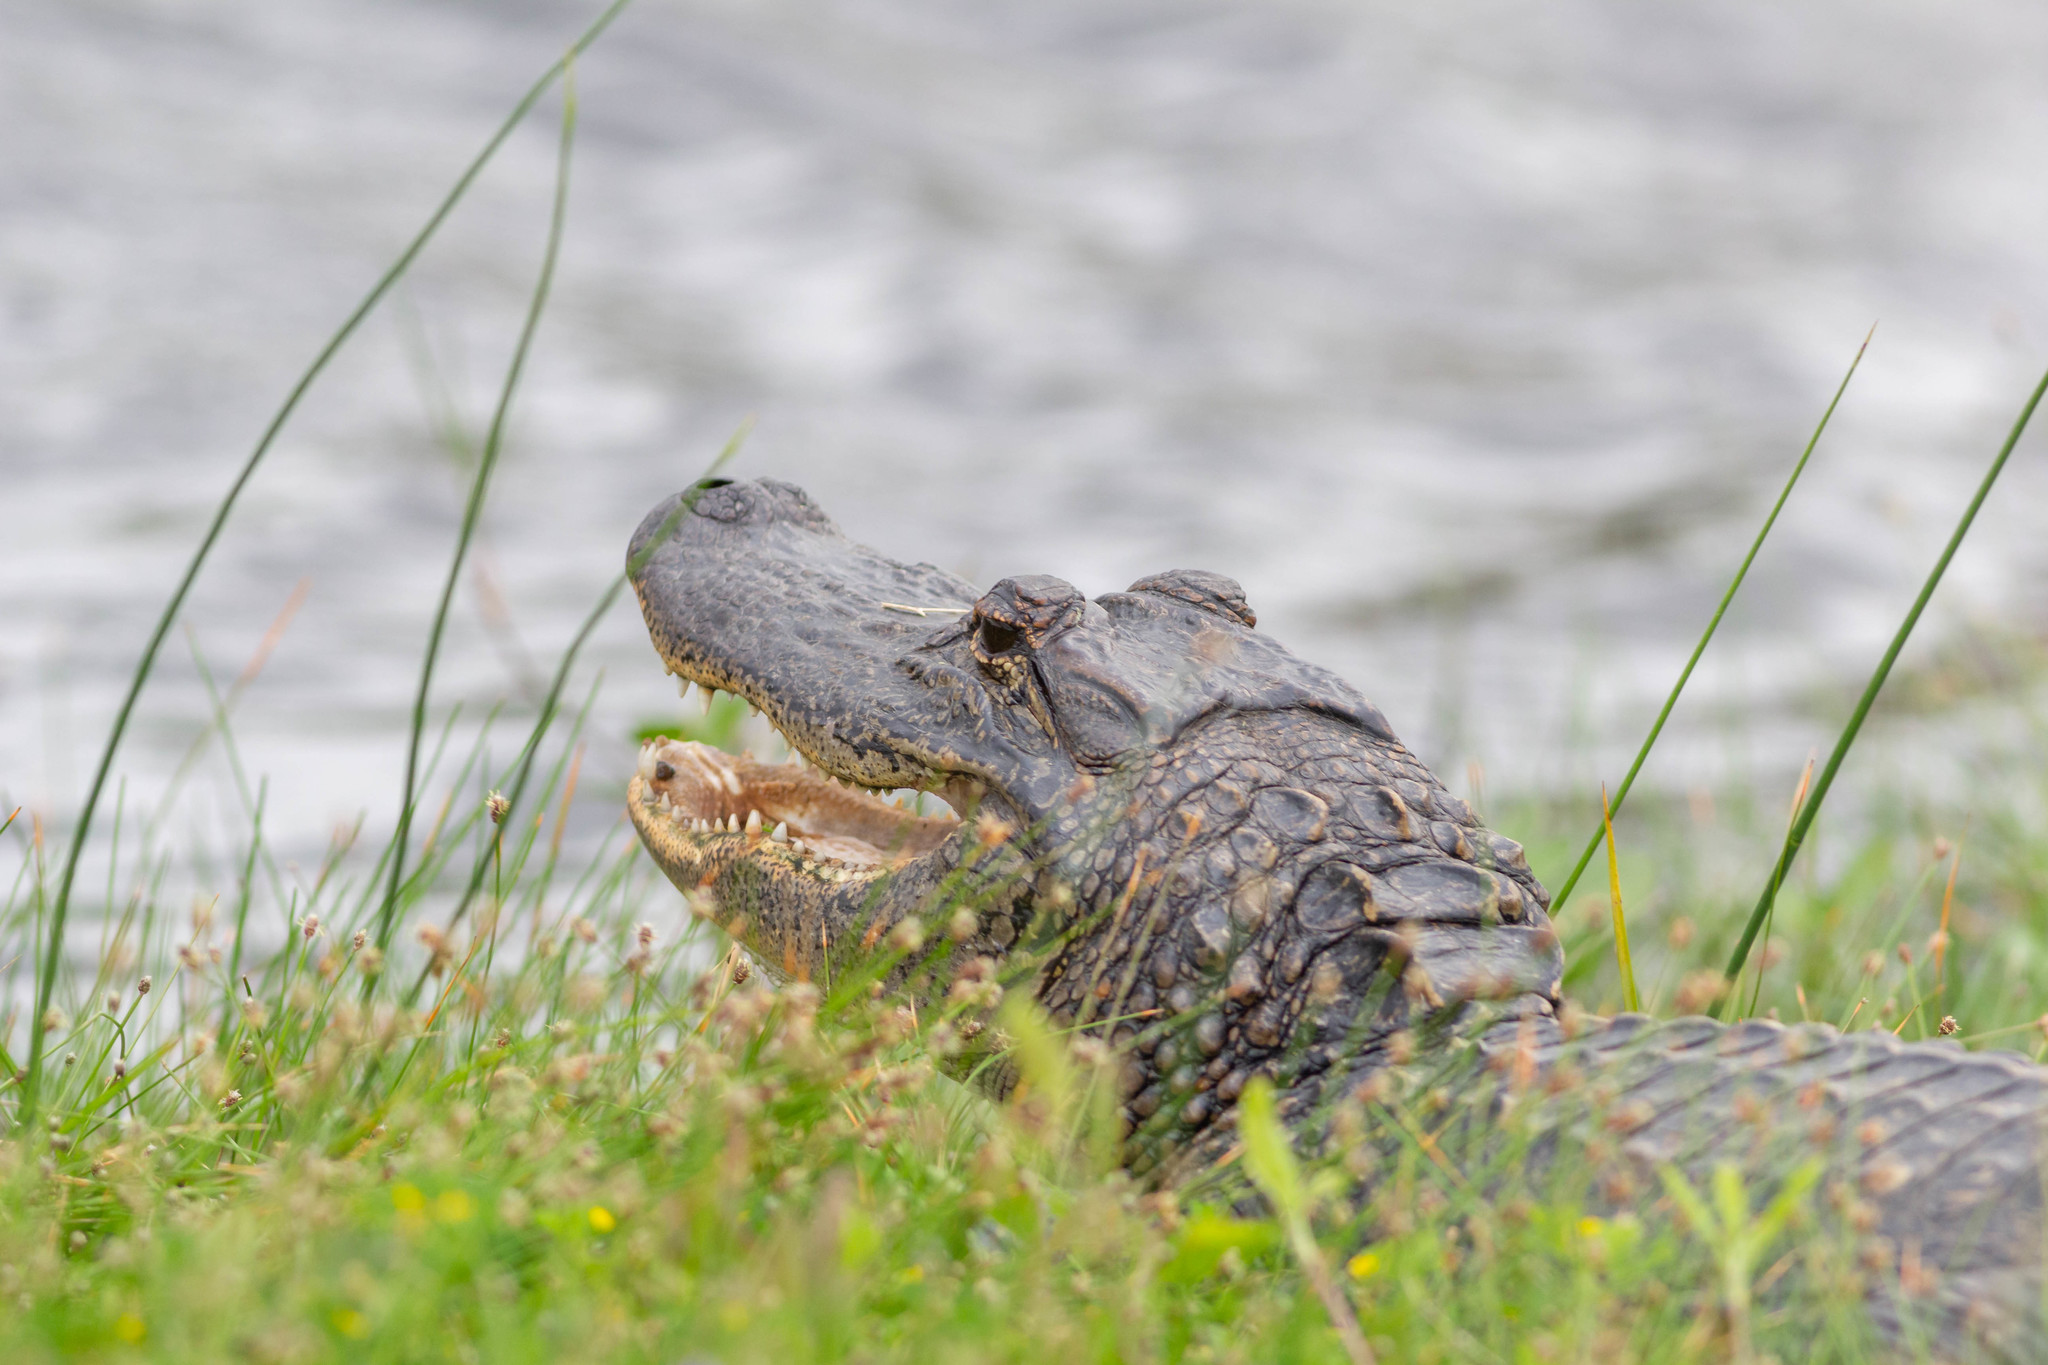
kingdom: Animalia
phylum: Chordata
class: Crocodylia
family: Alligatoridae
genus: Alligator
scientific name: Alligator mississippiensis
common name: American alligator
